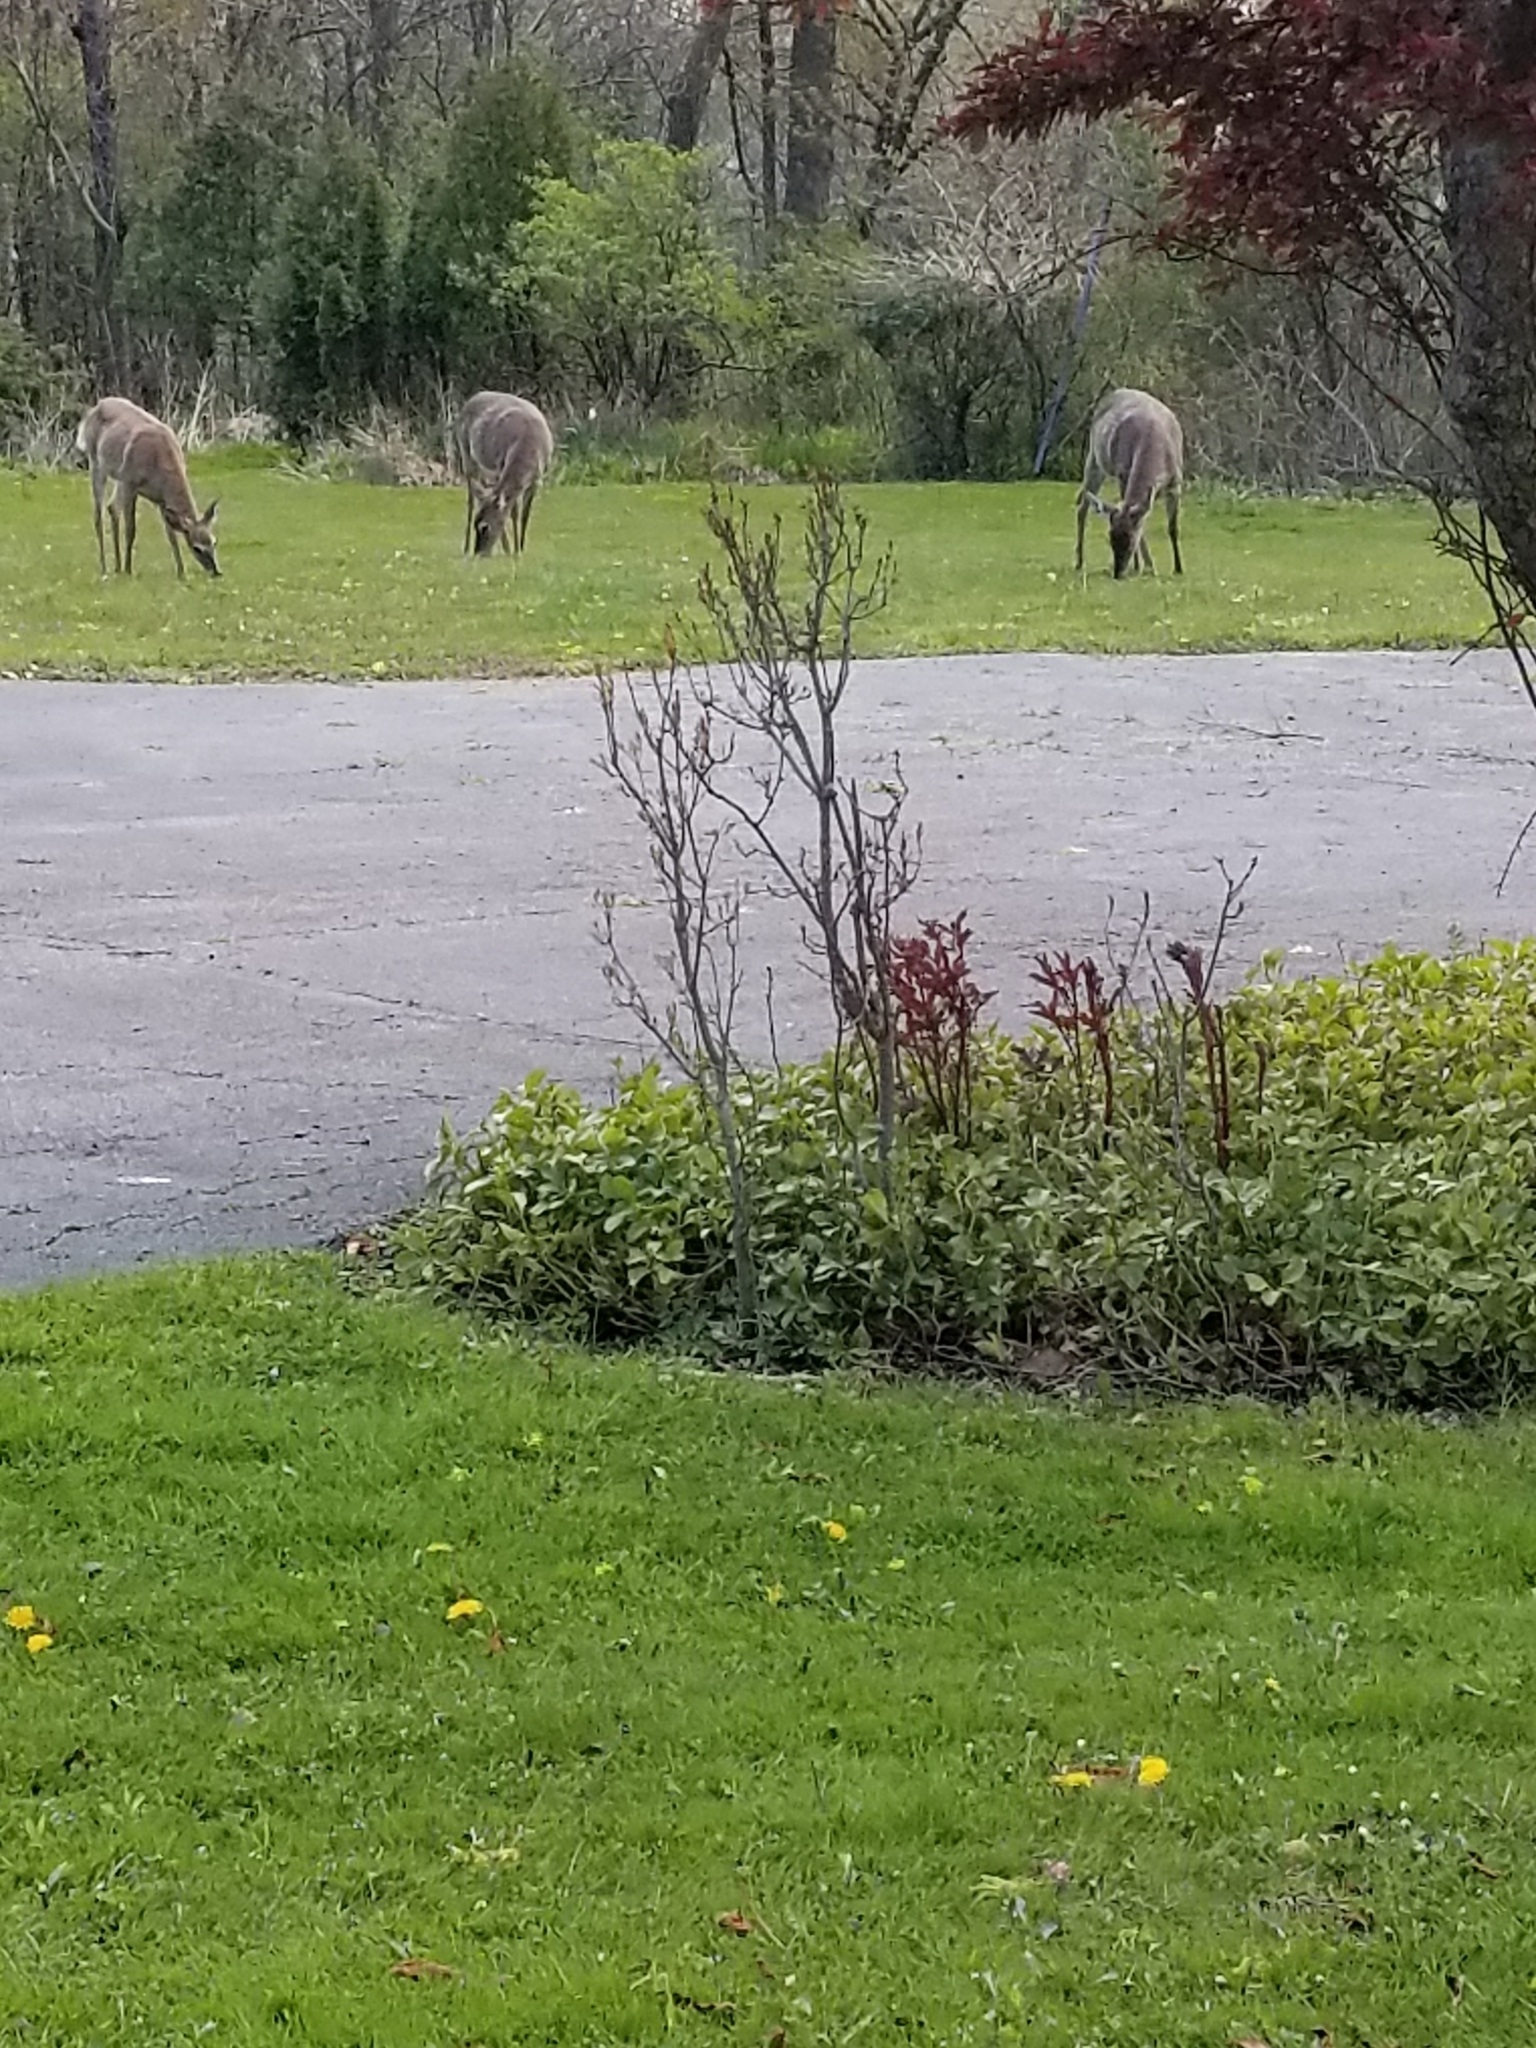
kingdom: Animalia
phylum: Chordata
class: Mammalia
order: Artiodactyla
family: Cervidae
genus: Odocoileus
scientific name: Odocoileus virginianus
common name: White-tailed deer
